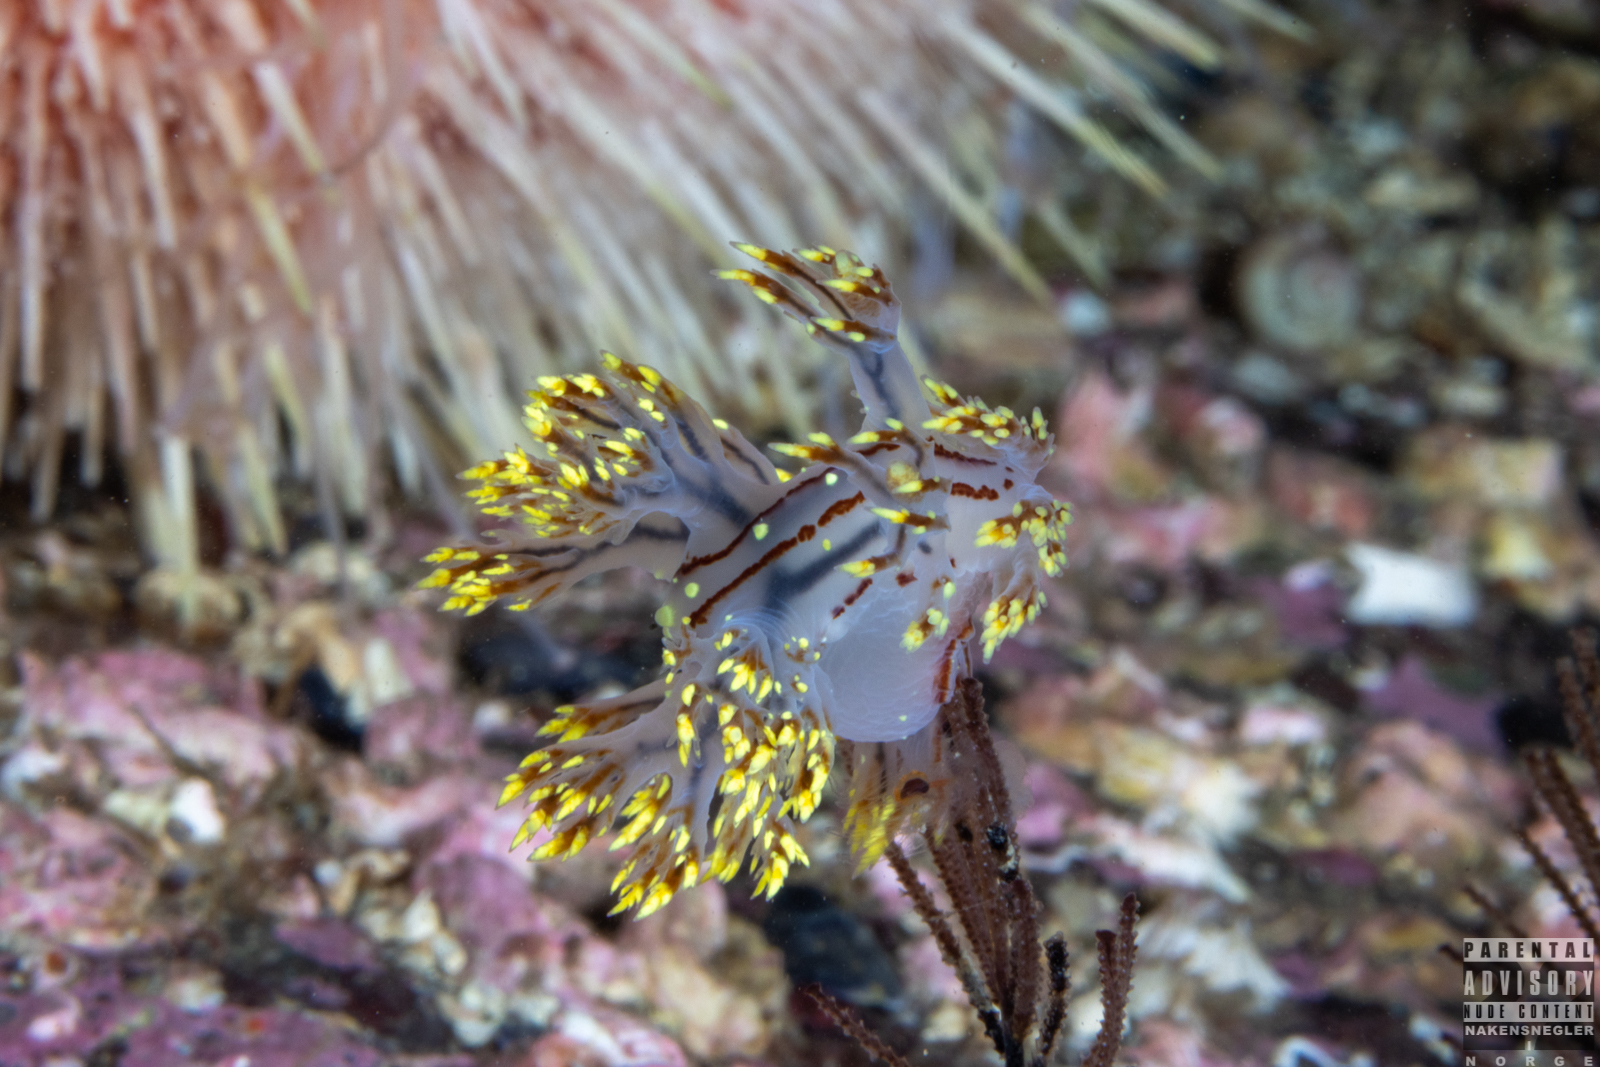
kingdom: Animalia
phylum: Mollusca
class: Gastropoda
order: Nudibranchia
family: Dendronotidae
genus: Dendronotus
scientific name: Dendronotus yrjargul
